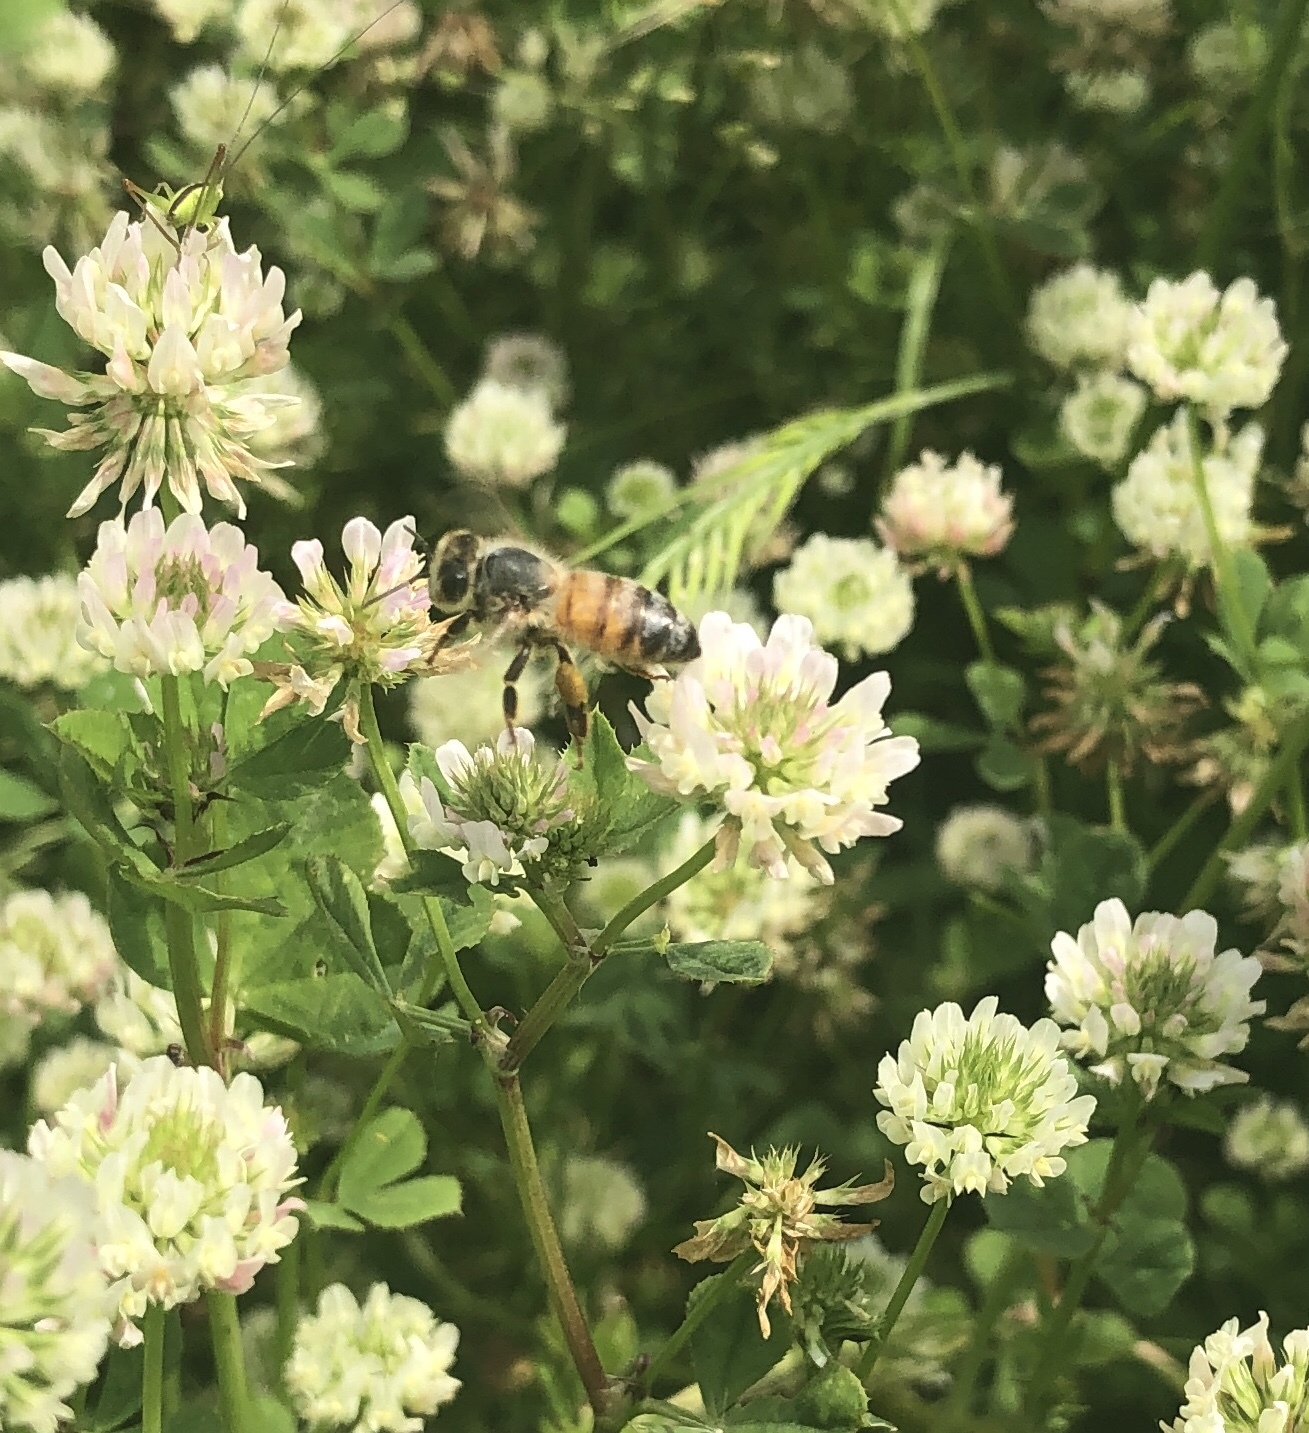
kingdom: Animalia
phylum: Arthropoda
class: Insecta
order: Hymenoptera
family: Apidae
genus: Apis
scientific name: Apis mellifera
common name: Honey bee
